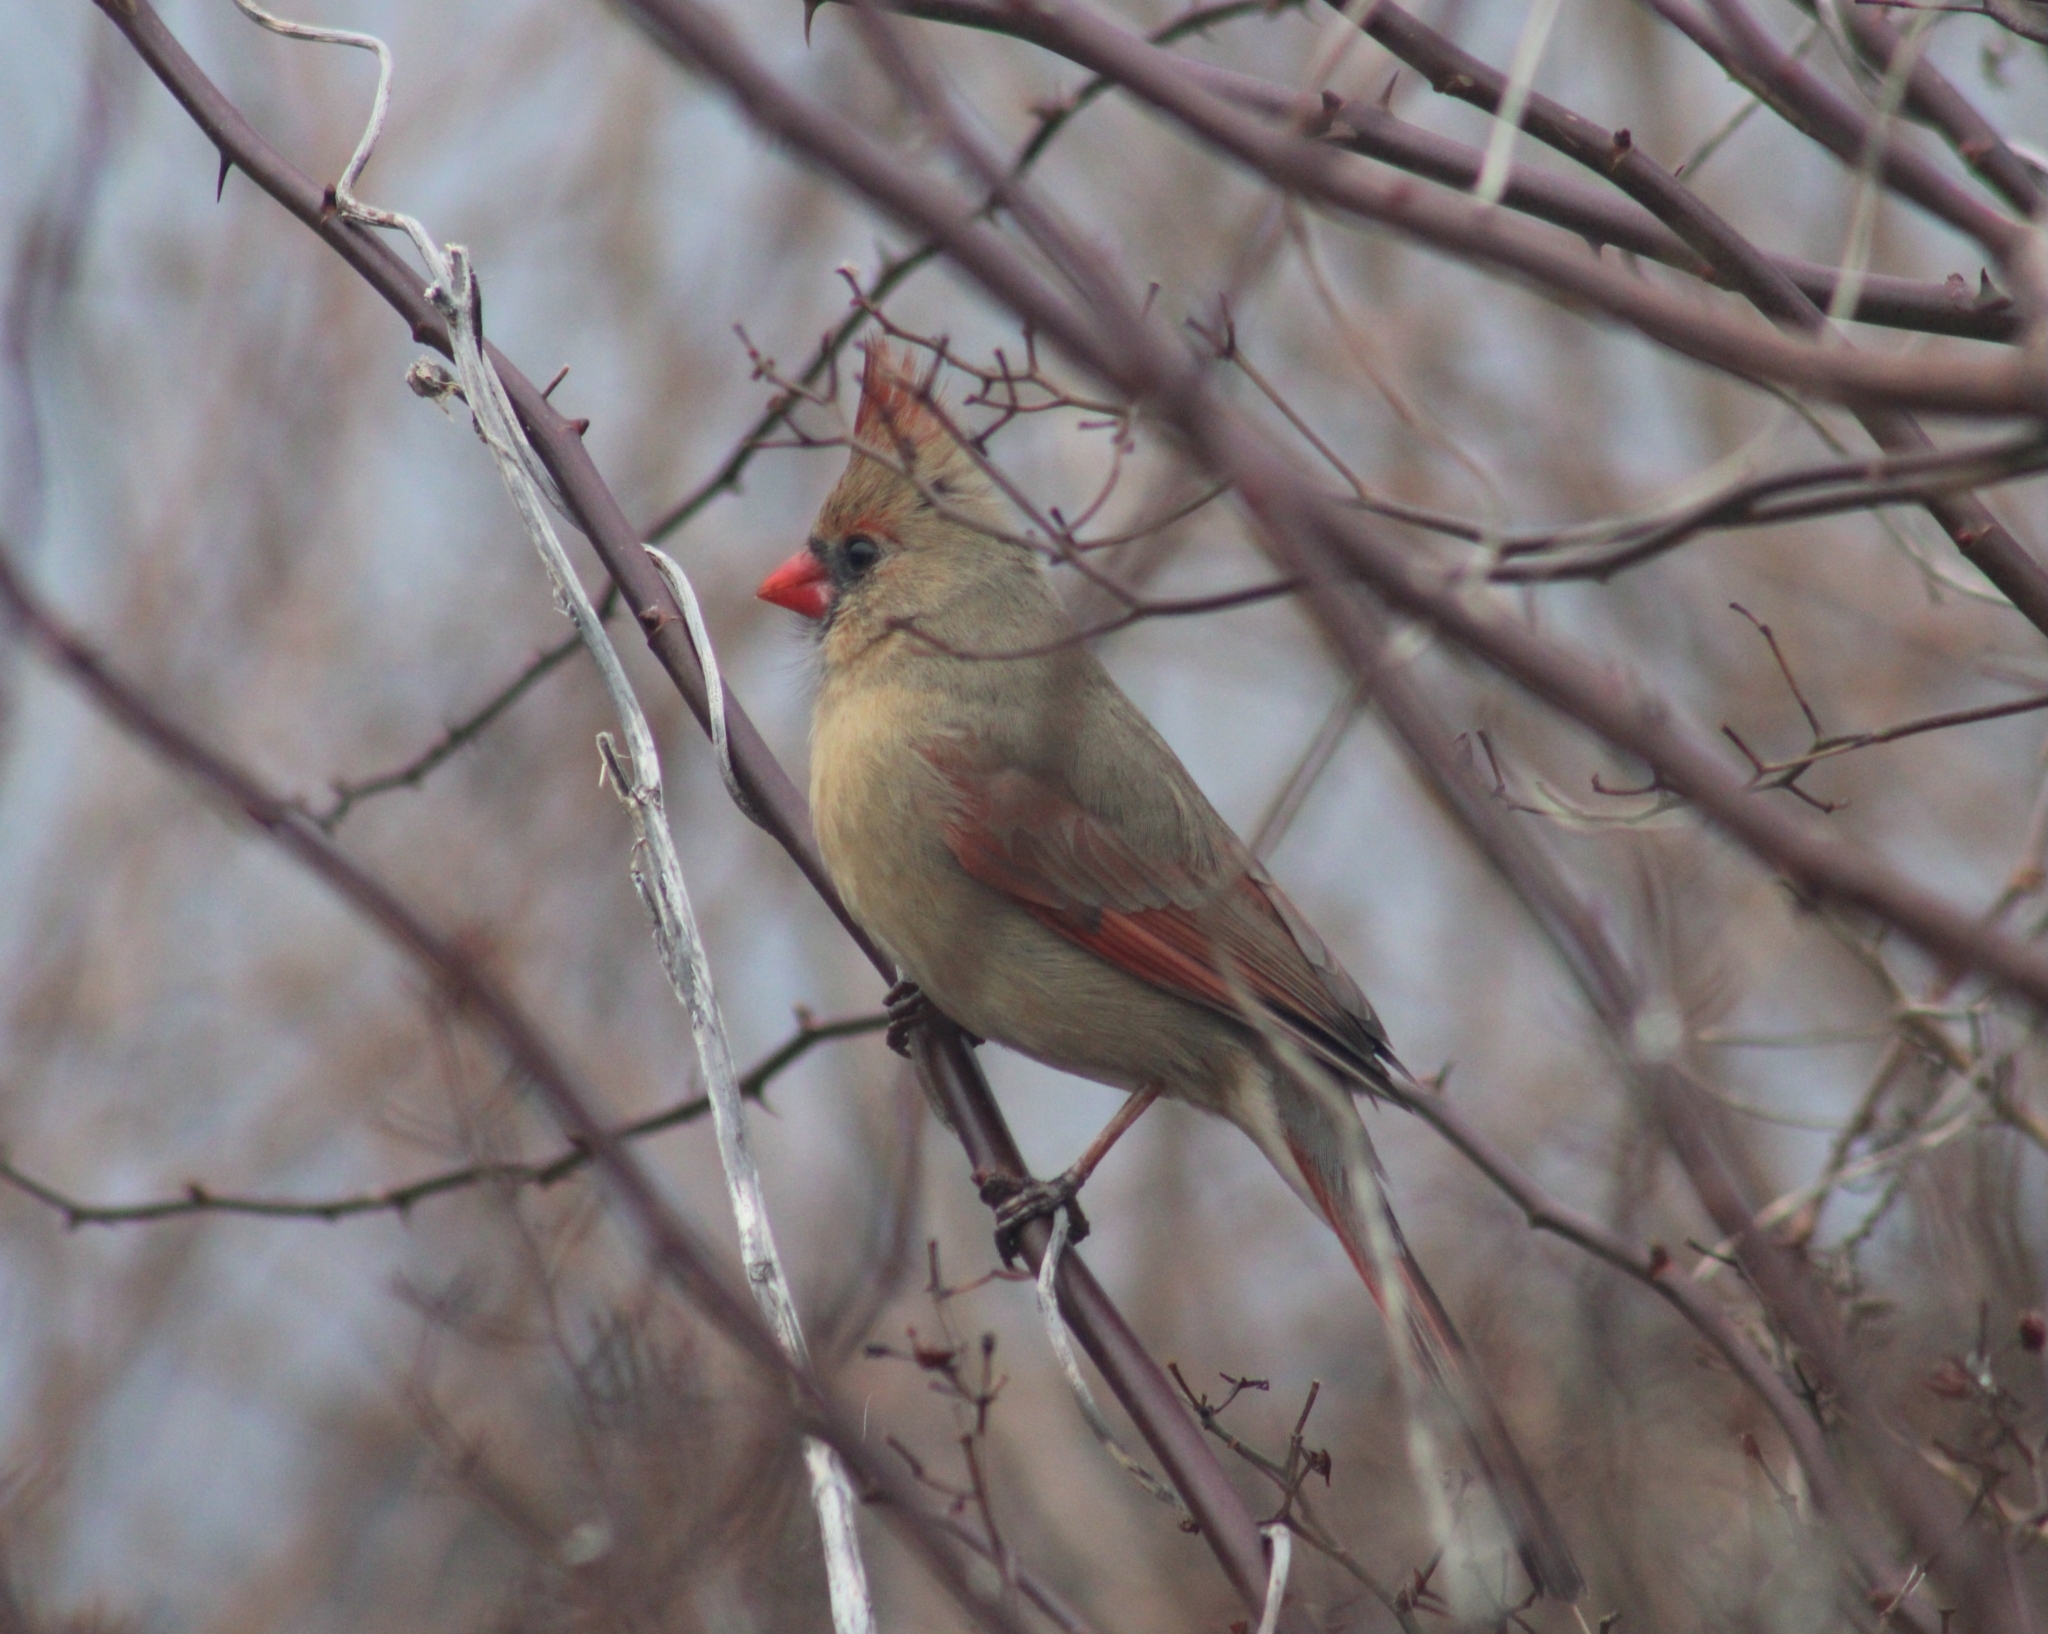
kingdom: Animalia
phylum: Chordata
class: Aves
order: Passeriformes
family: Cardinalidae
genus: Cardinalis
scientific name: Cardinalis cardinalis
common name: Northern cardinal
